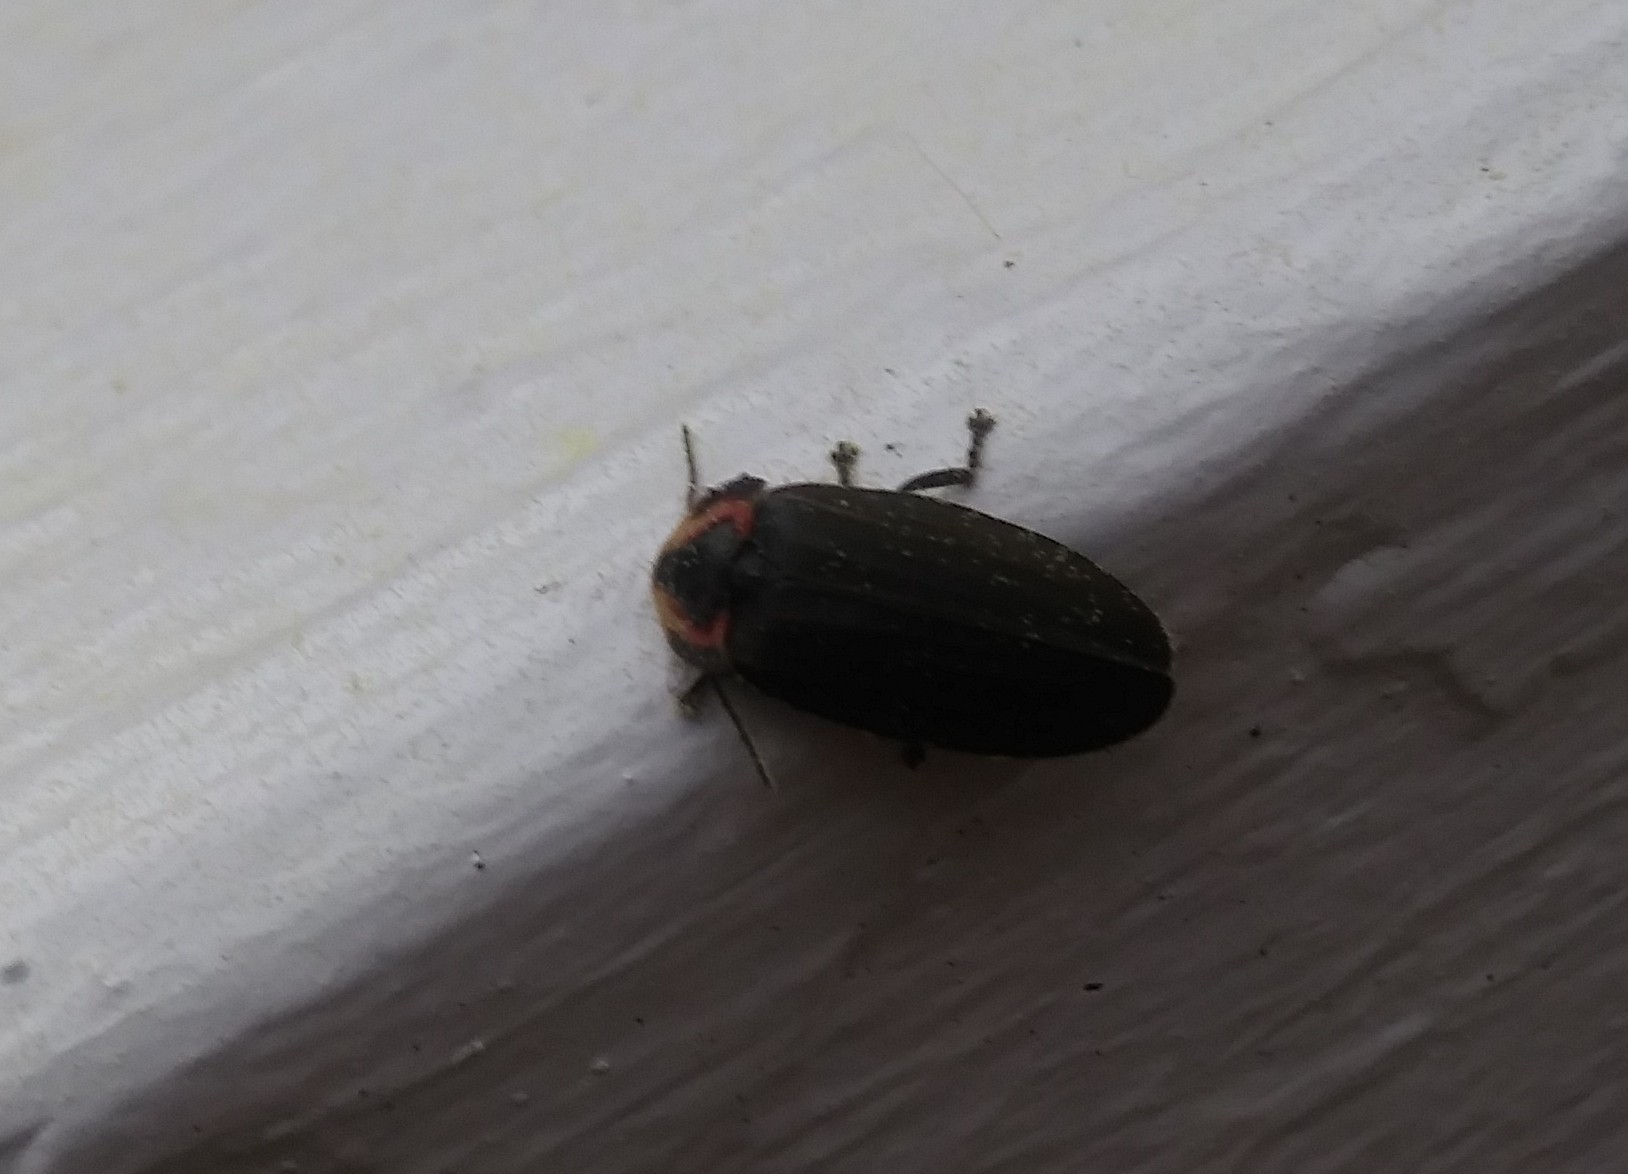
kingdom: Animalia
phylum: Arthropoda
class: Insecta
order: Coleoptera
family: Lampyridae
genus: Photinus
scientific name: Photinus corrusca
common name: Winter firefly
